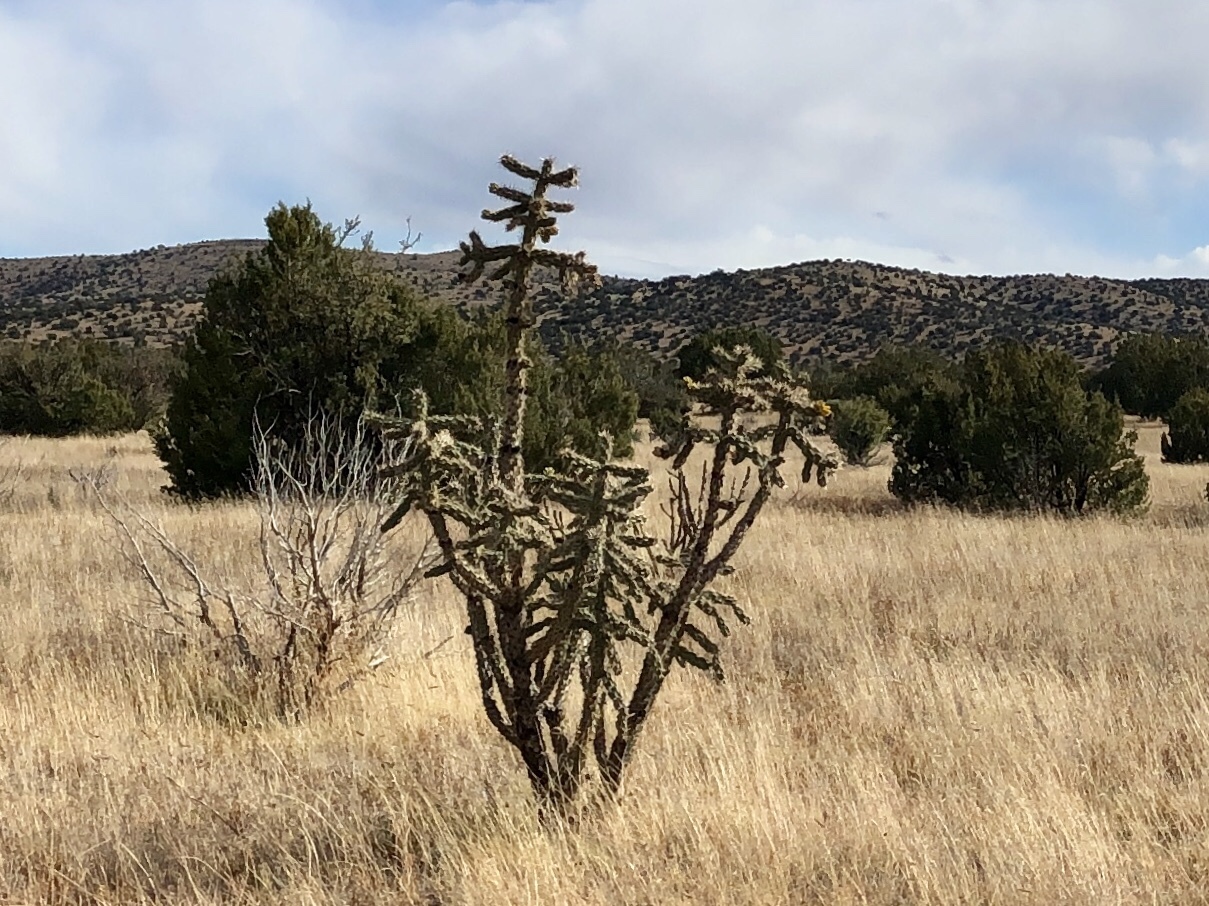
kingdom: Plantae
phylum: Tracheophyta
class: Magnoliopsida
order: Caryophyllales
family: Cactaceae
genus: Cylindropuntia
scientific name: Cylindropuntia imbricata
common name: Candelabrum cactus
